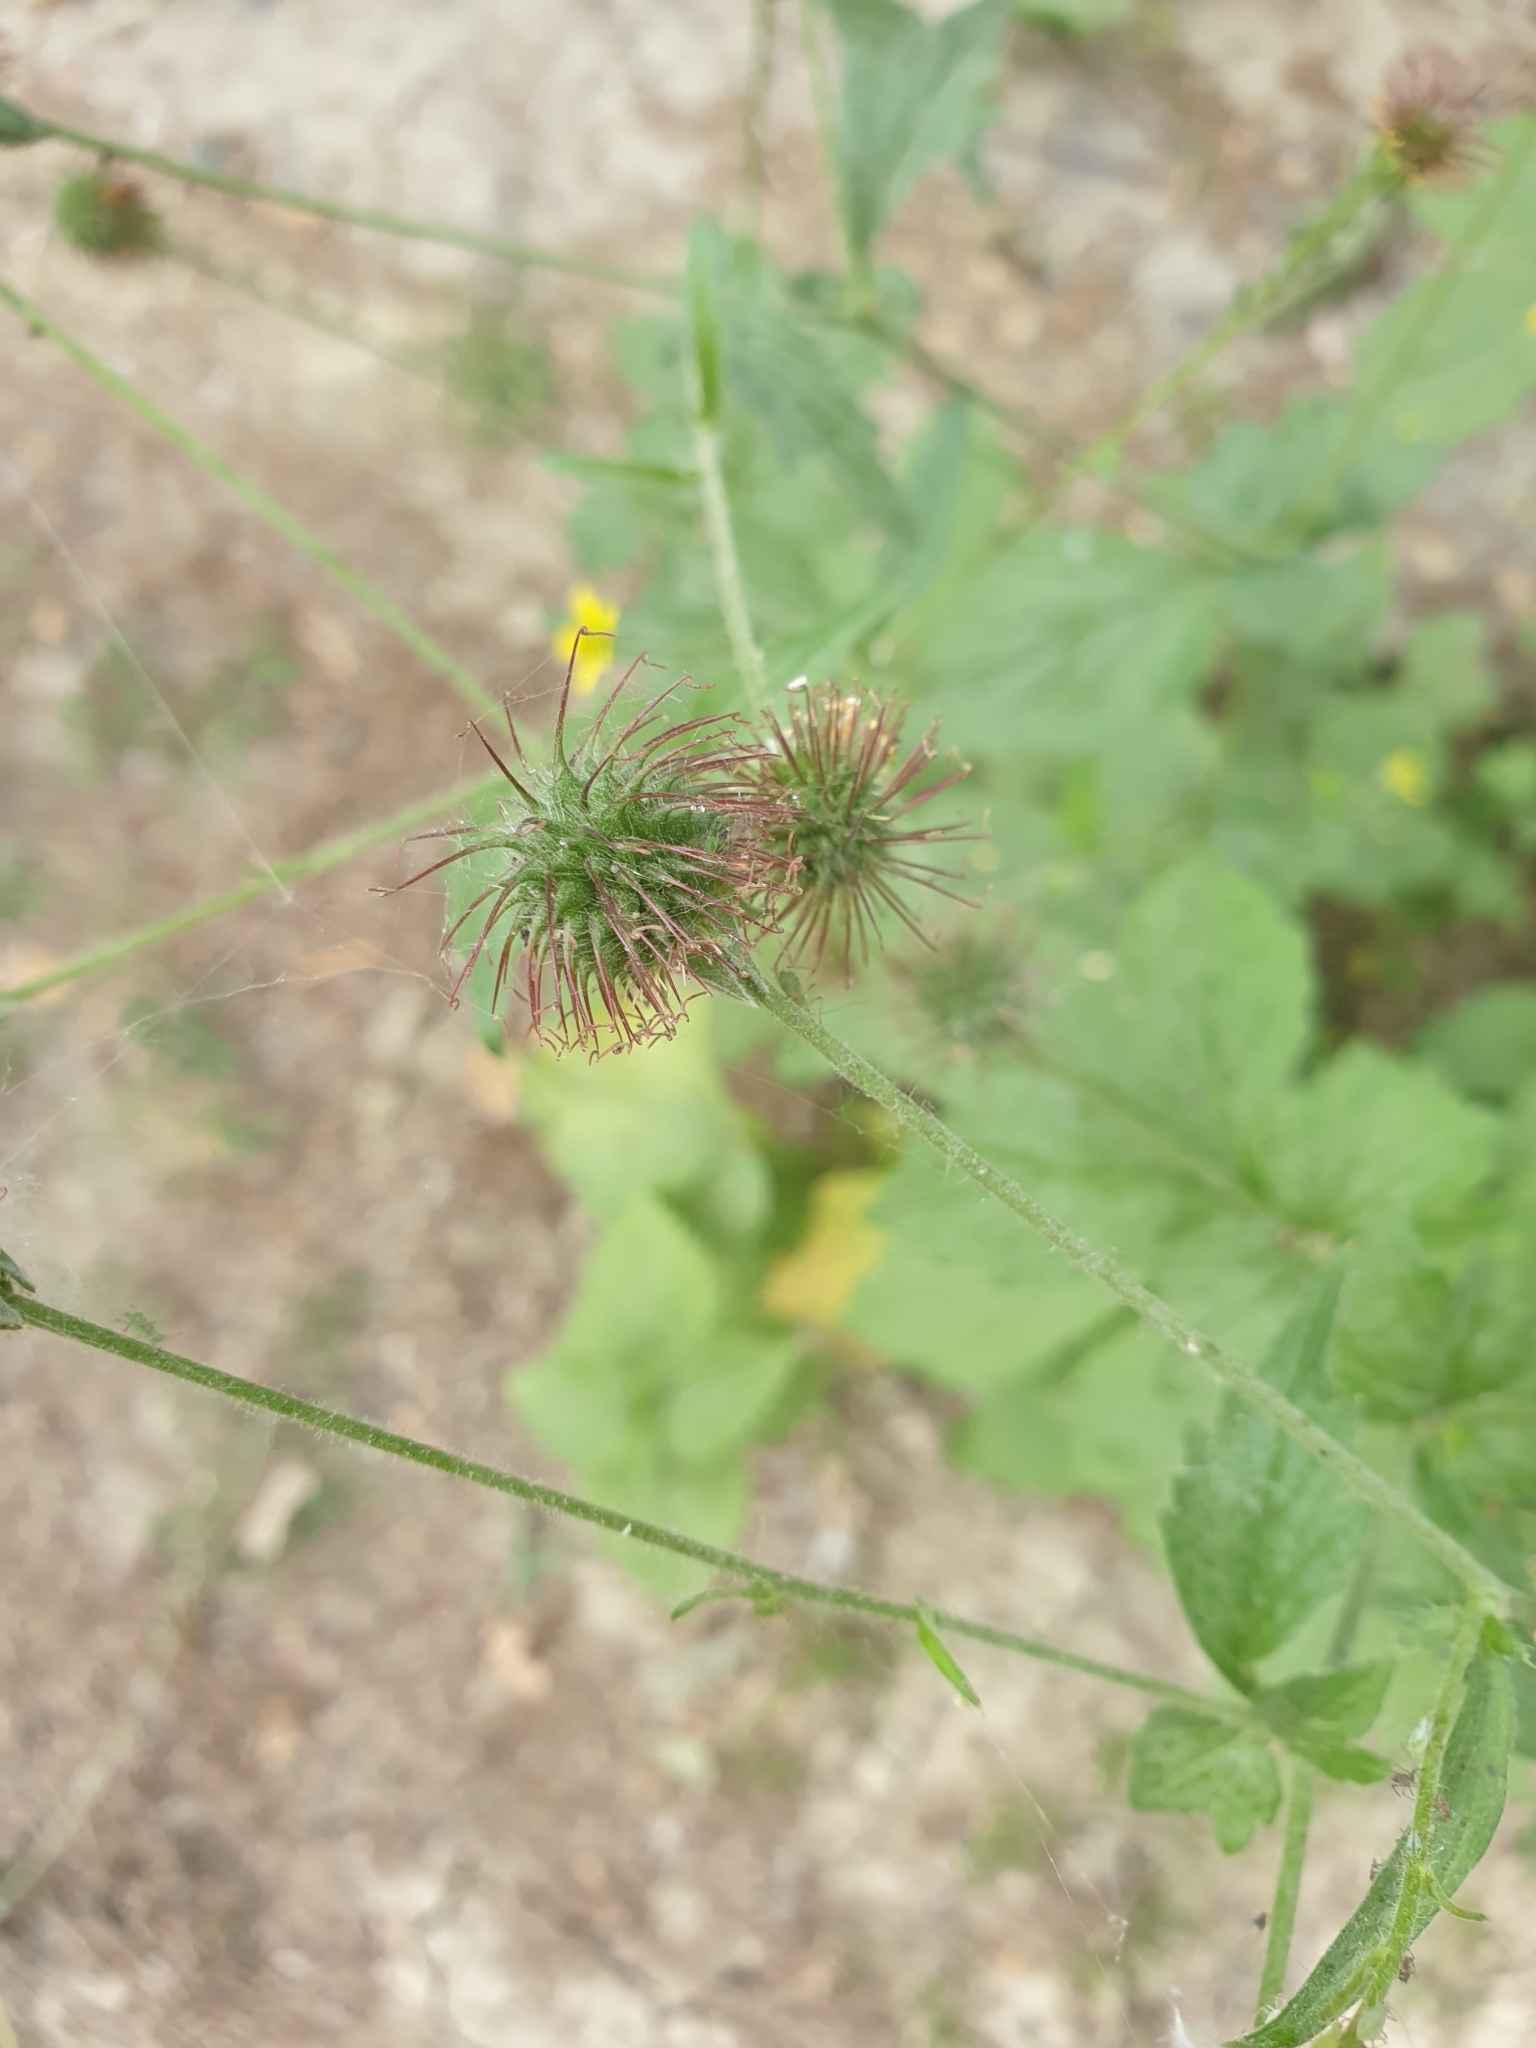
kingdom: Plantae
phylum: Tracheophyta
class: Magnoliopsida
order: Rosales
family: Rosaceae
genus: Geum
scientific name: Geum urbanum
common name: Wood avens
